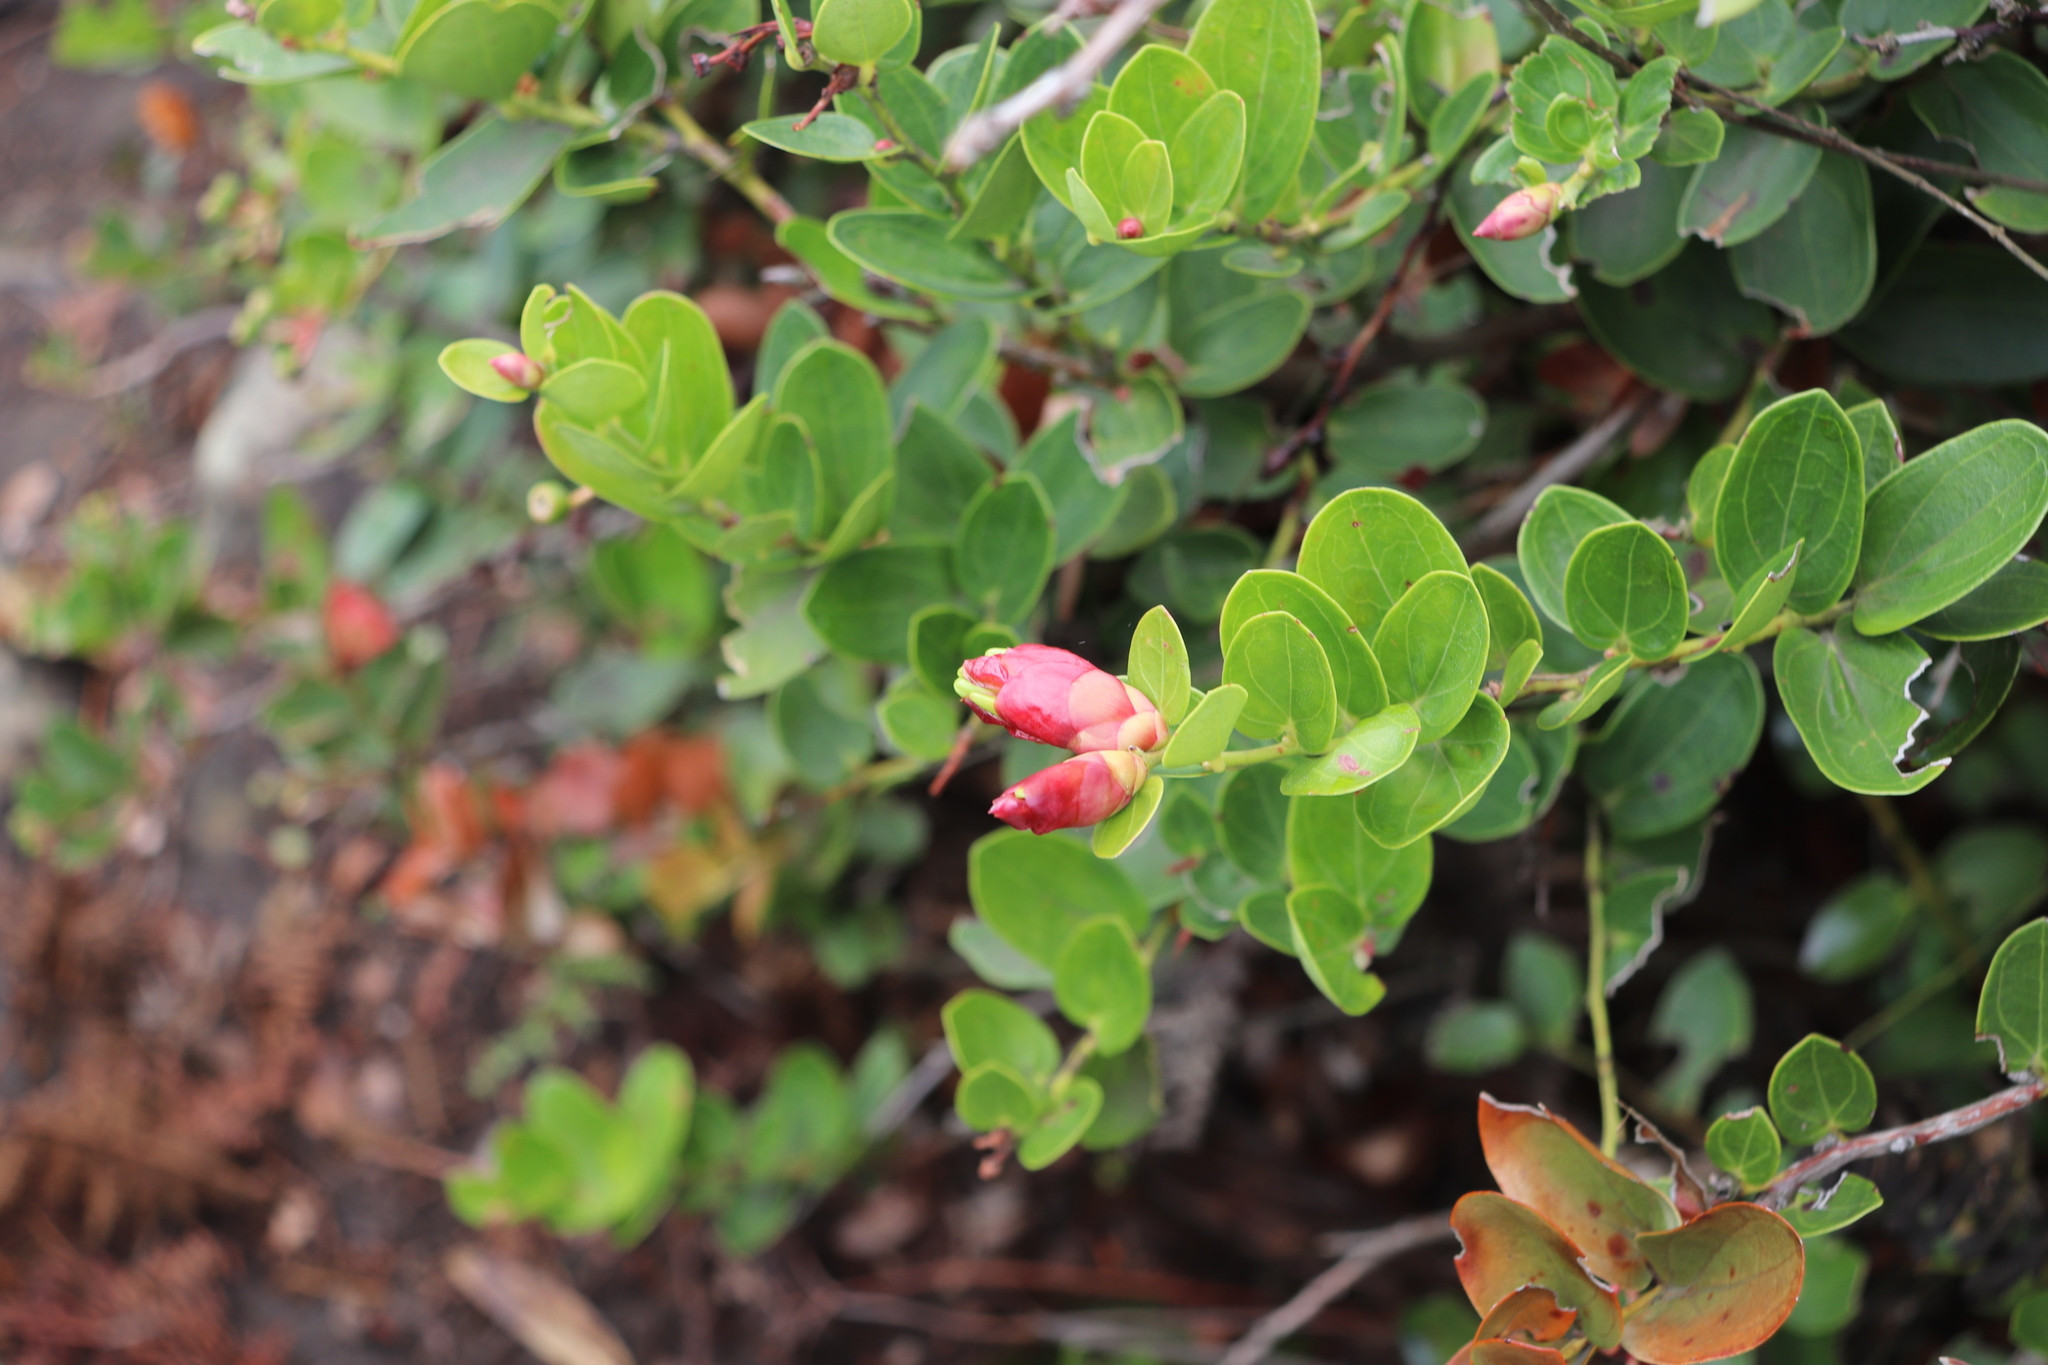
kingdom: Plantae
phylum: Tracheophyta
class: Magnoliopsida
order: Ericales
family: Ericaceae
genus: Cavendishia
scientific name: Cavendishia bracteata
